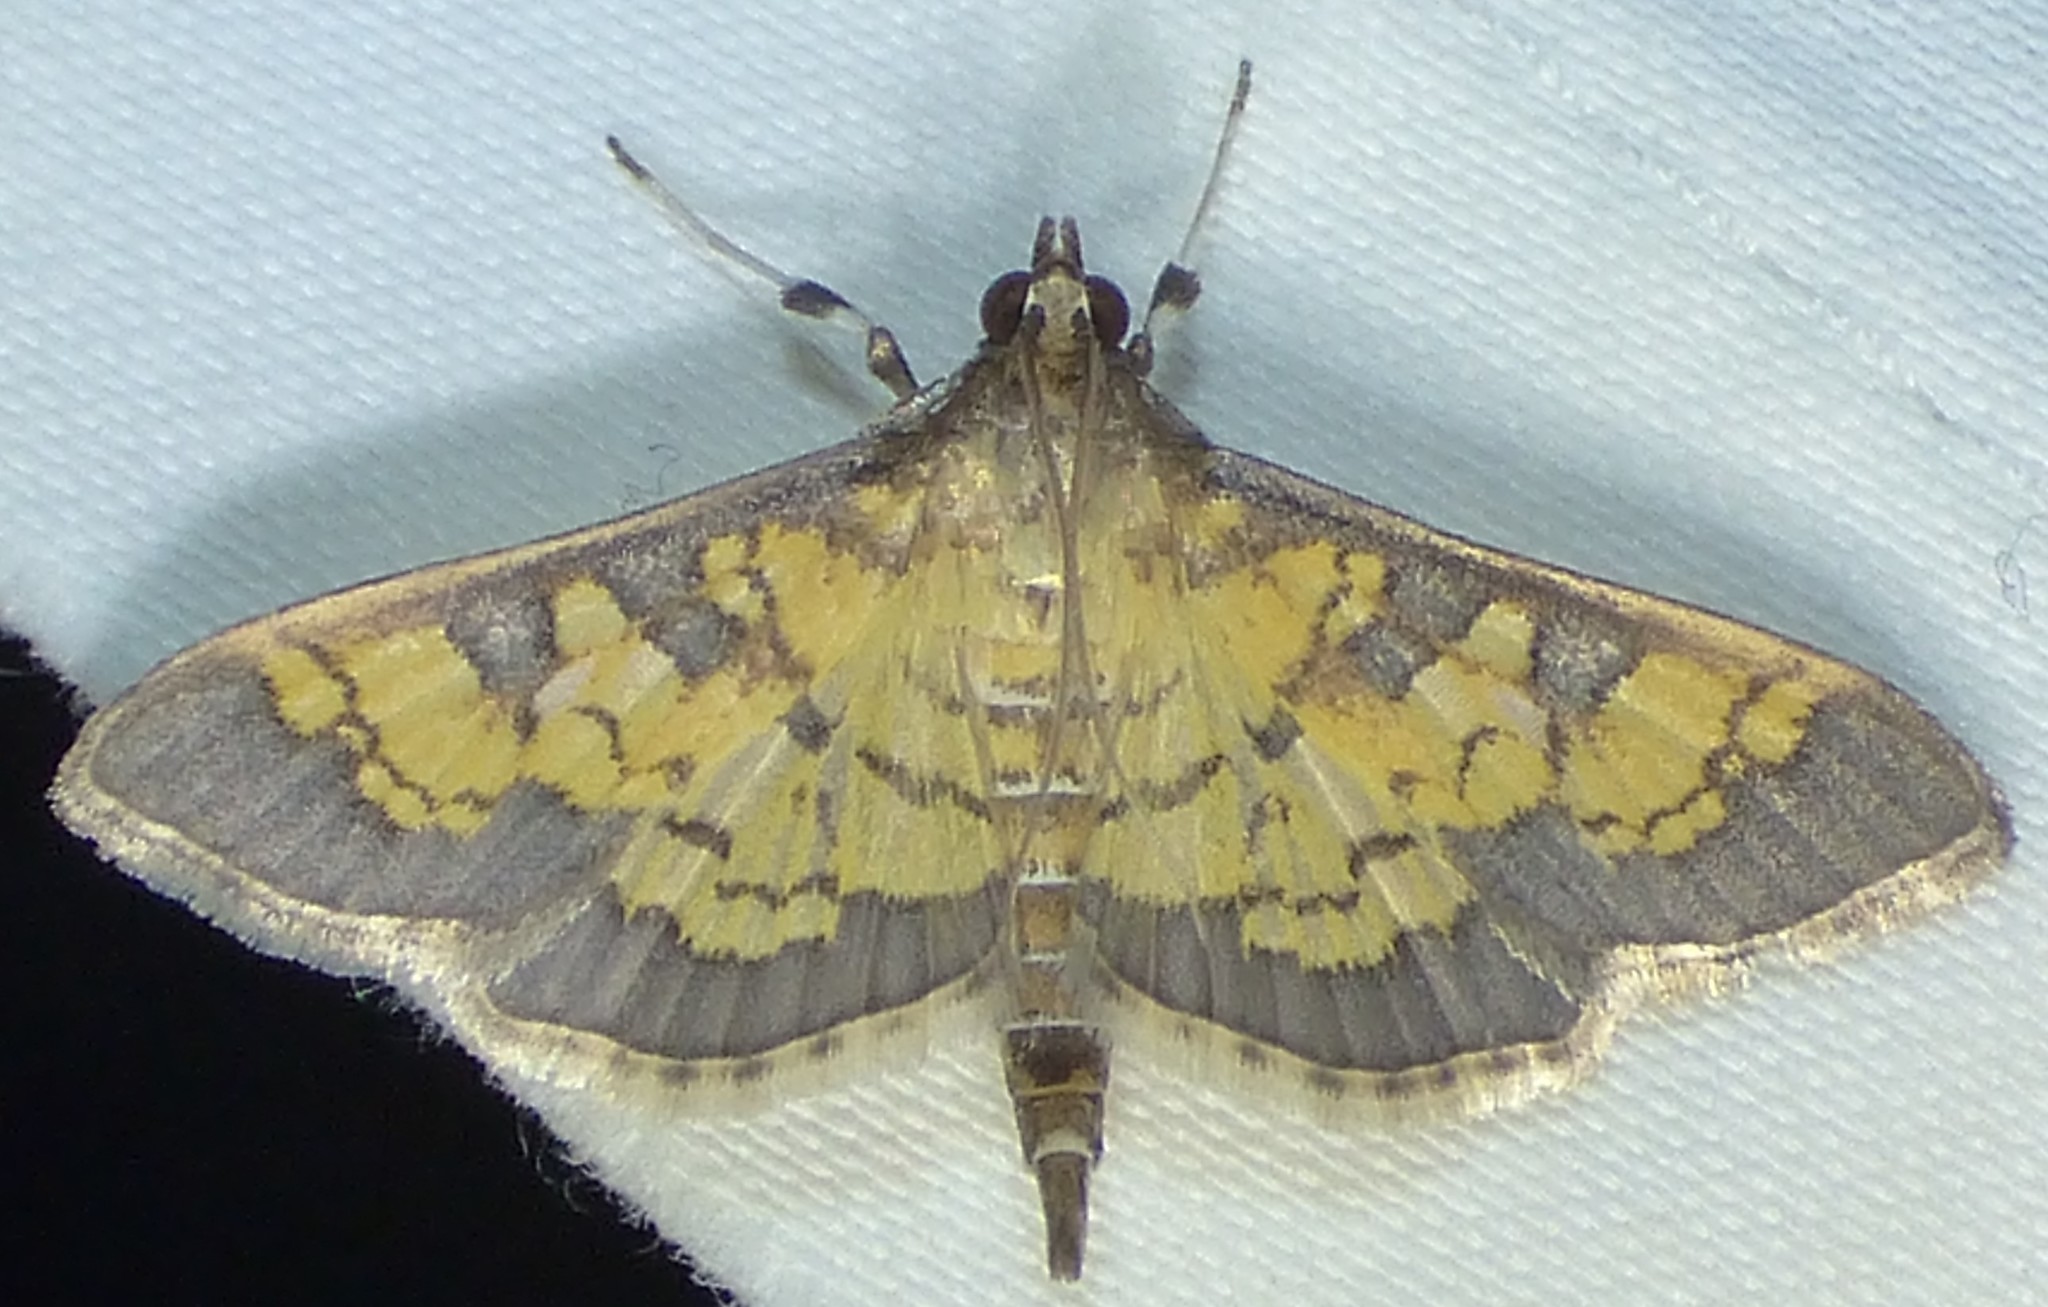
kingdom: Animalia
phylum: Arthropoda
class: Insecta
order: Lepidoptera
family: Crambidae
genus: Epipagis
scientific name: Epipagis adipaloides
